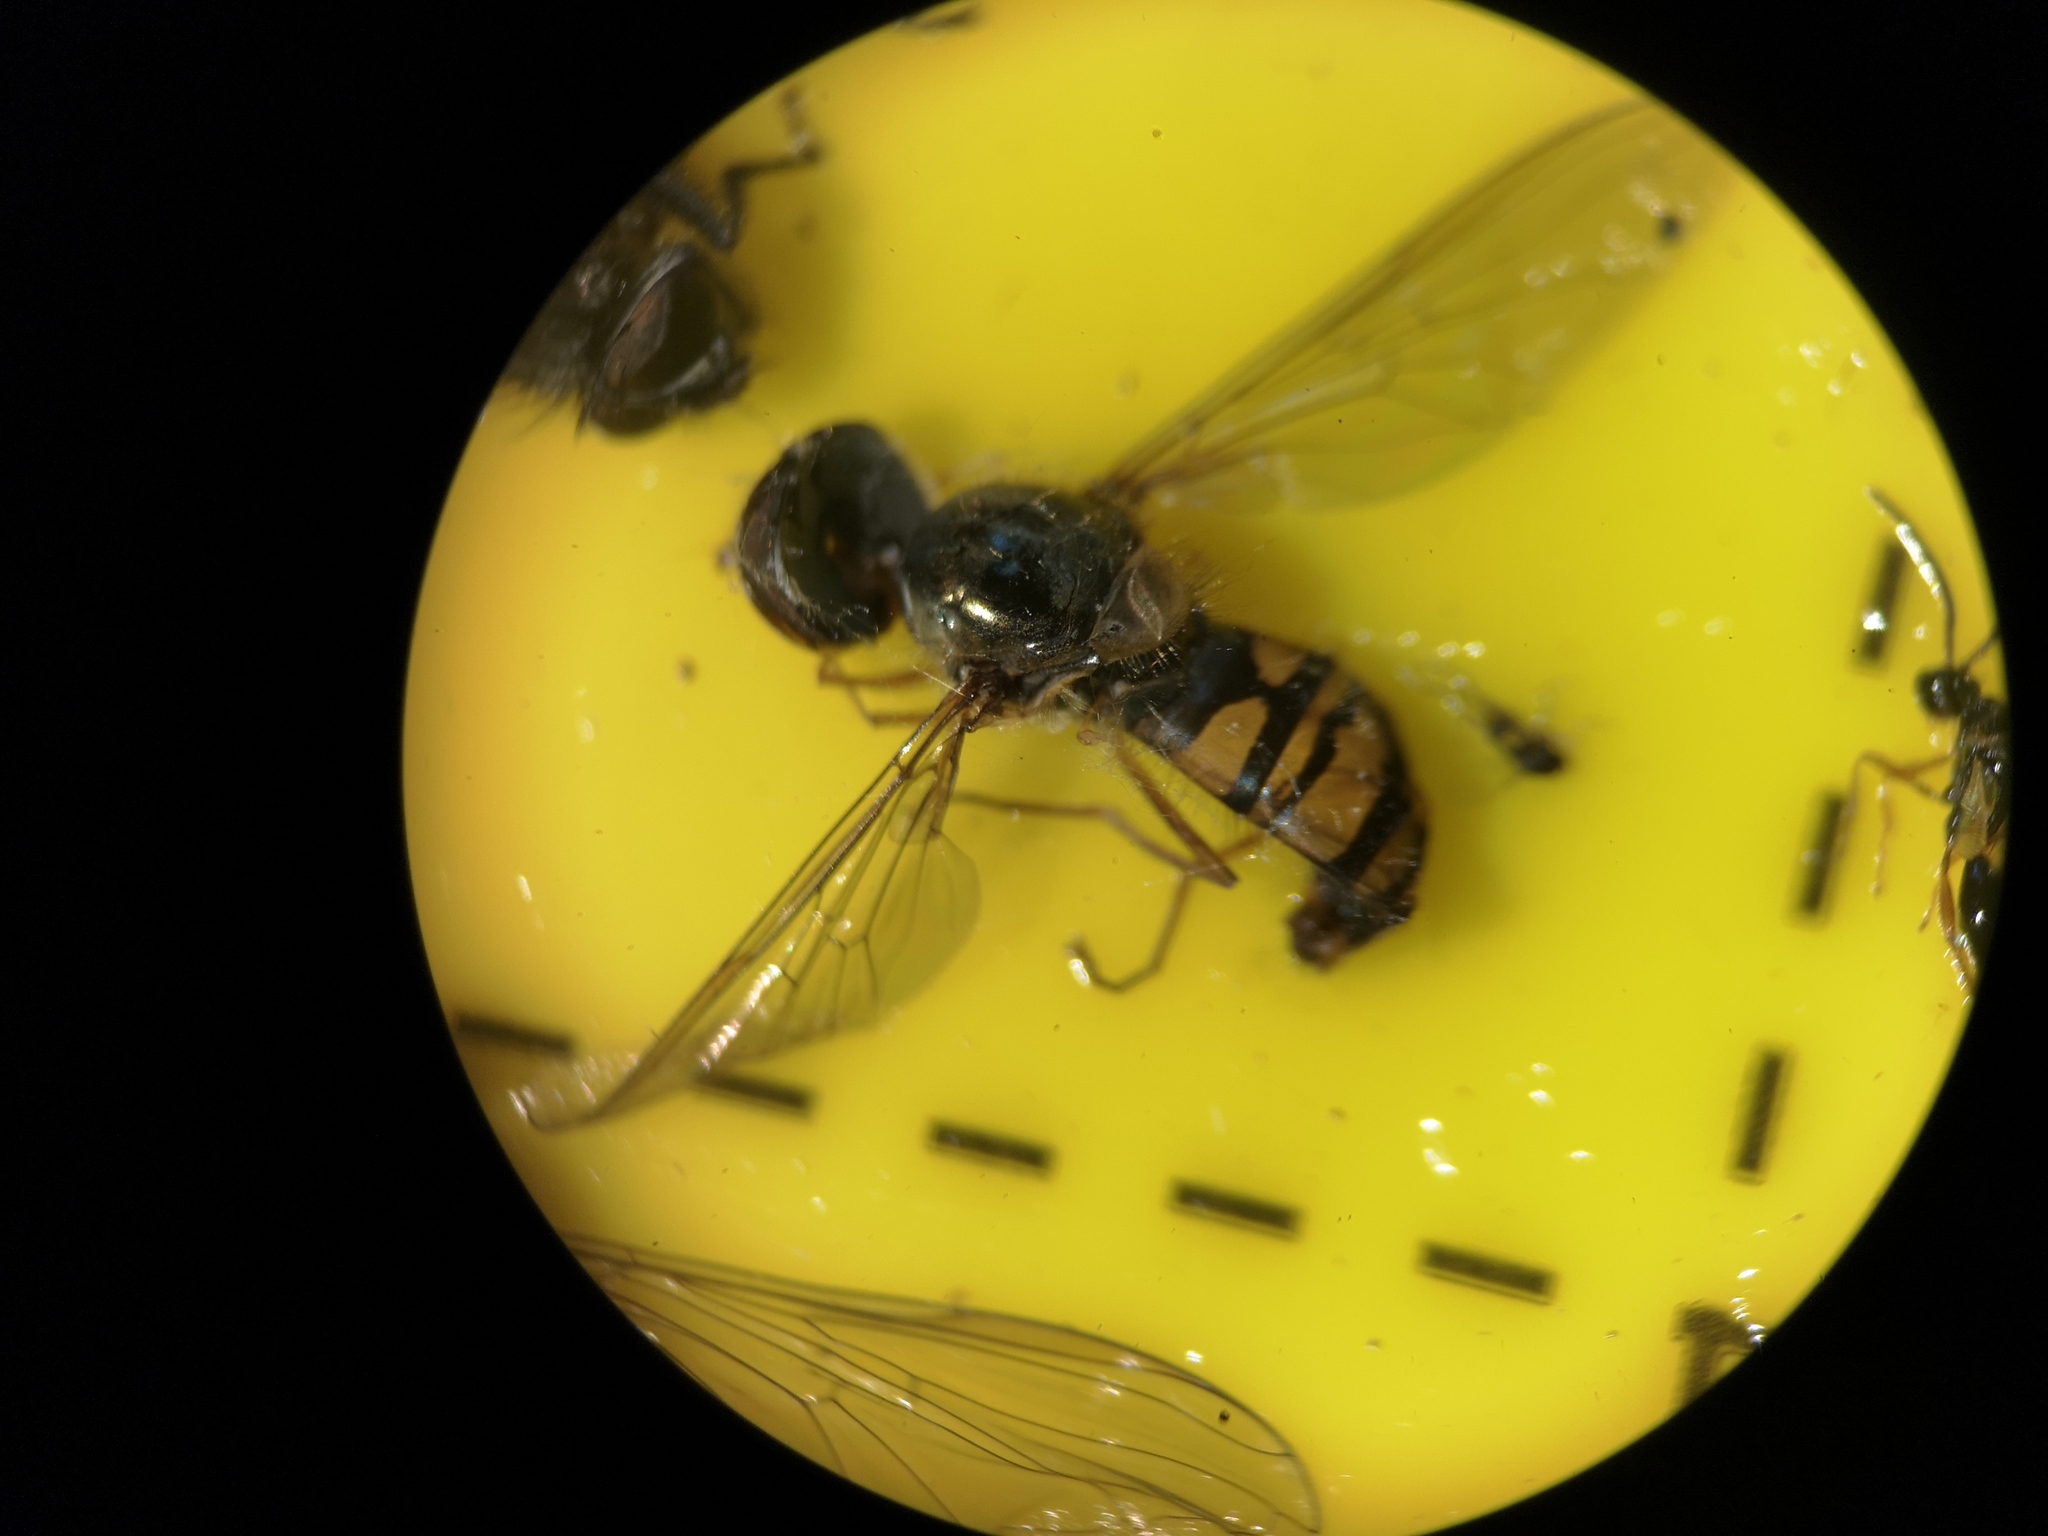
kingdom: Animalia
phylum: Arthropoda
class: Insecta
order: Diptera
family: Syrphidae
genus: Episyrphus
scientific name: Episyrphus balteatus
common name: Marmalade hoverfly
